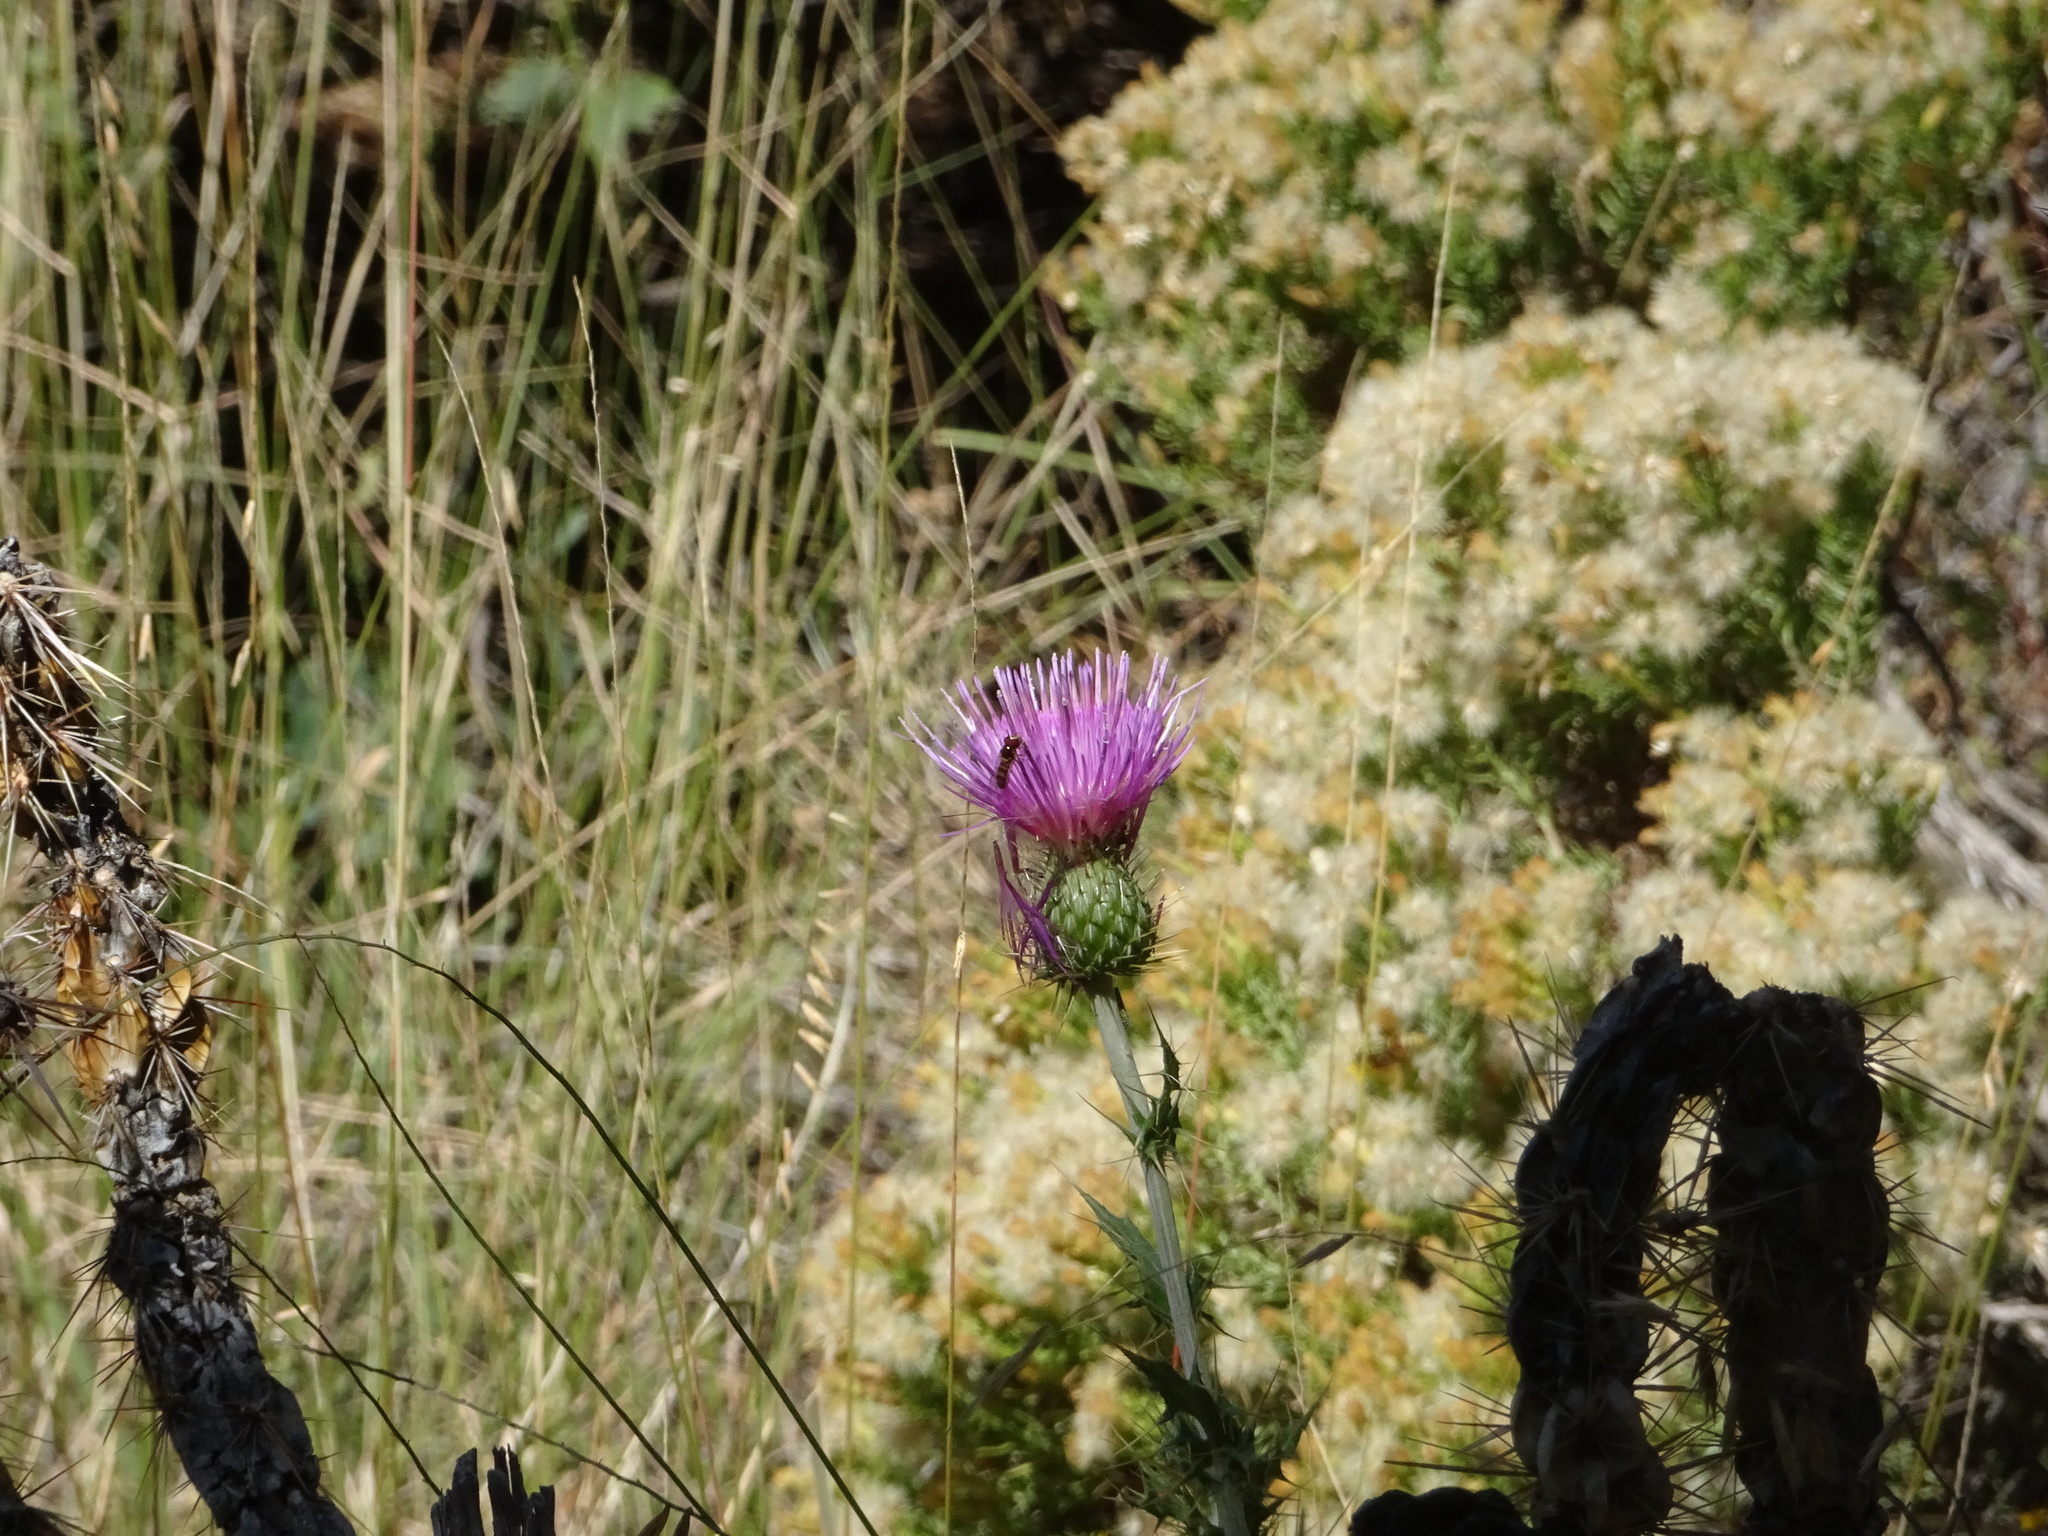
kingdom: Animalia
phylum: Arthropoda
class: Insecta
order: Diptera
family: Syrphidae
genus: Allograpta
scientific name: Allograpta obliqua
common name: Common oblique syrphid
